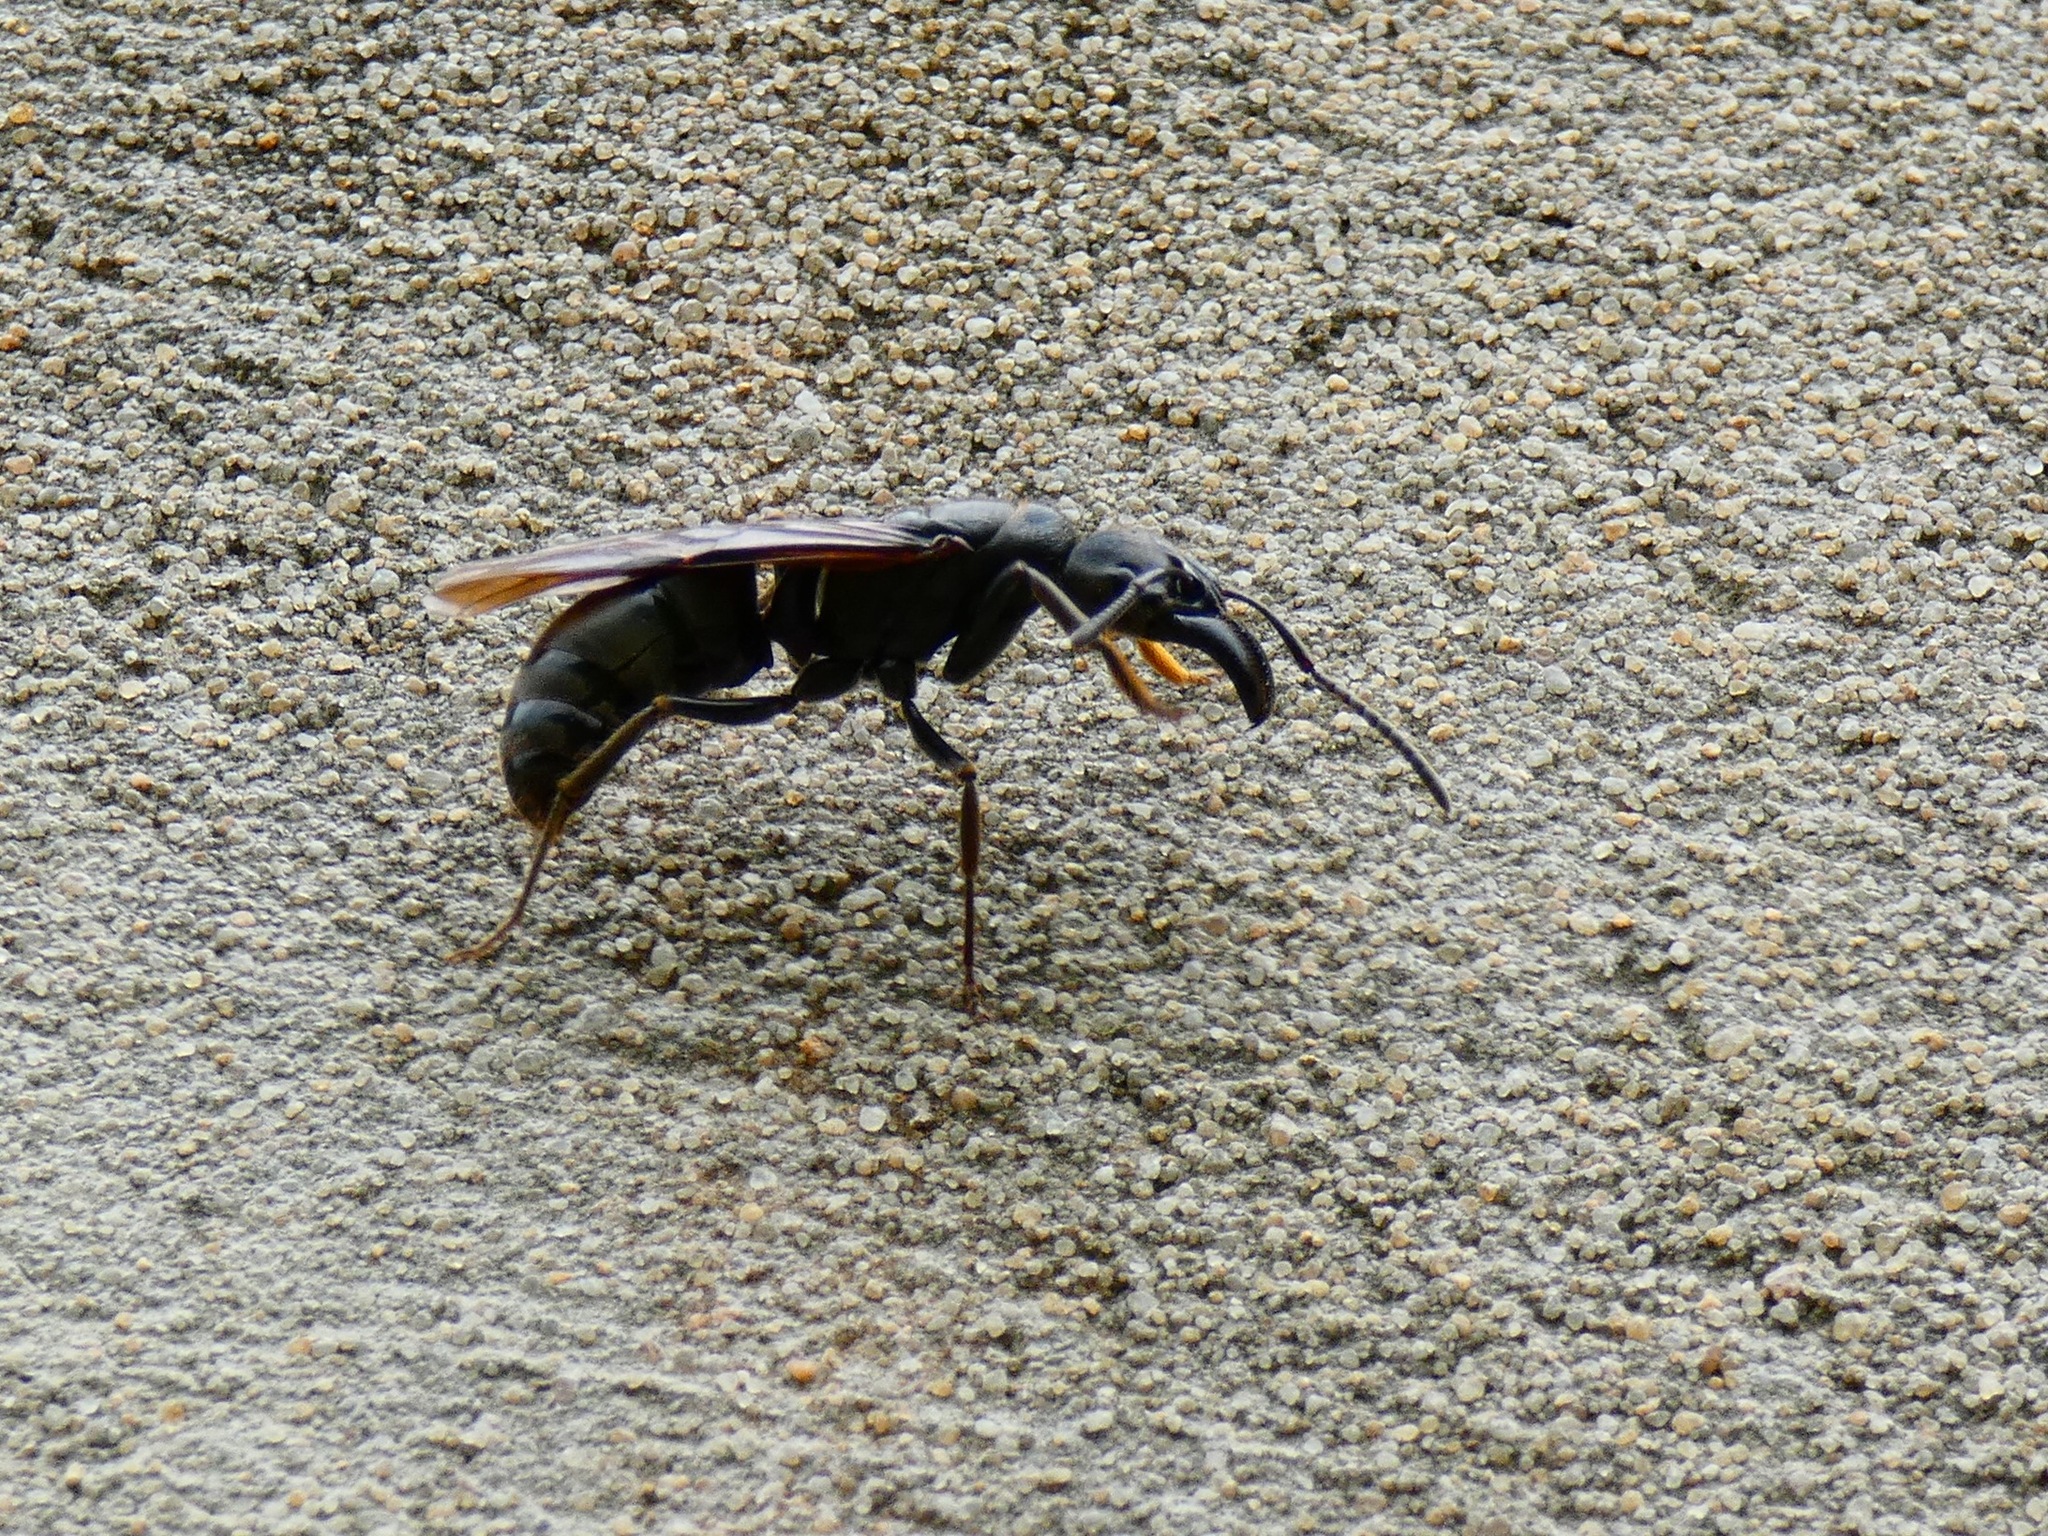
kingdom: Animalia
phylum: Arthropoda
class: Insecta
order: Hymenoptera
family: Formicidae
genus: Paltothyreus
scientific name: Paltothyreus tarsatus
